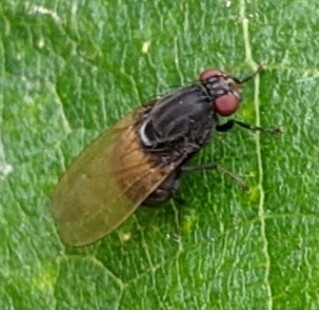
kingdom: Animalia
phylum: Arthropoda
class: Insecta
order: Diptera
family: Lauxaniidae
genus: Minettia
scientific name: Minettia longipennis
